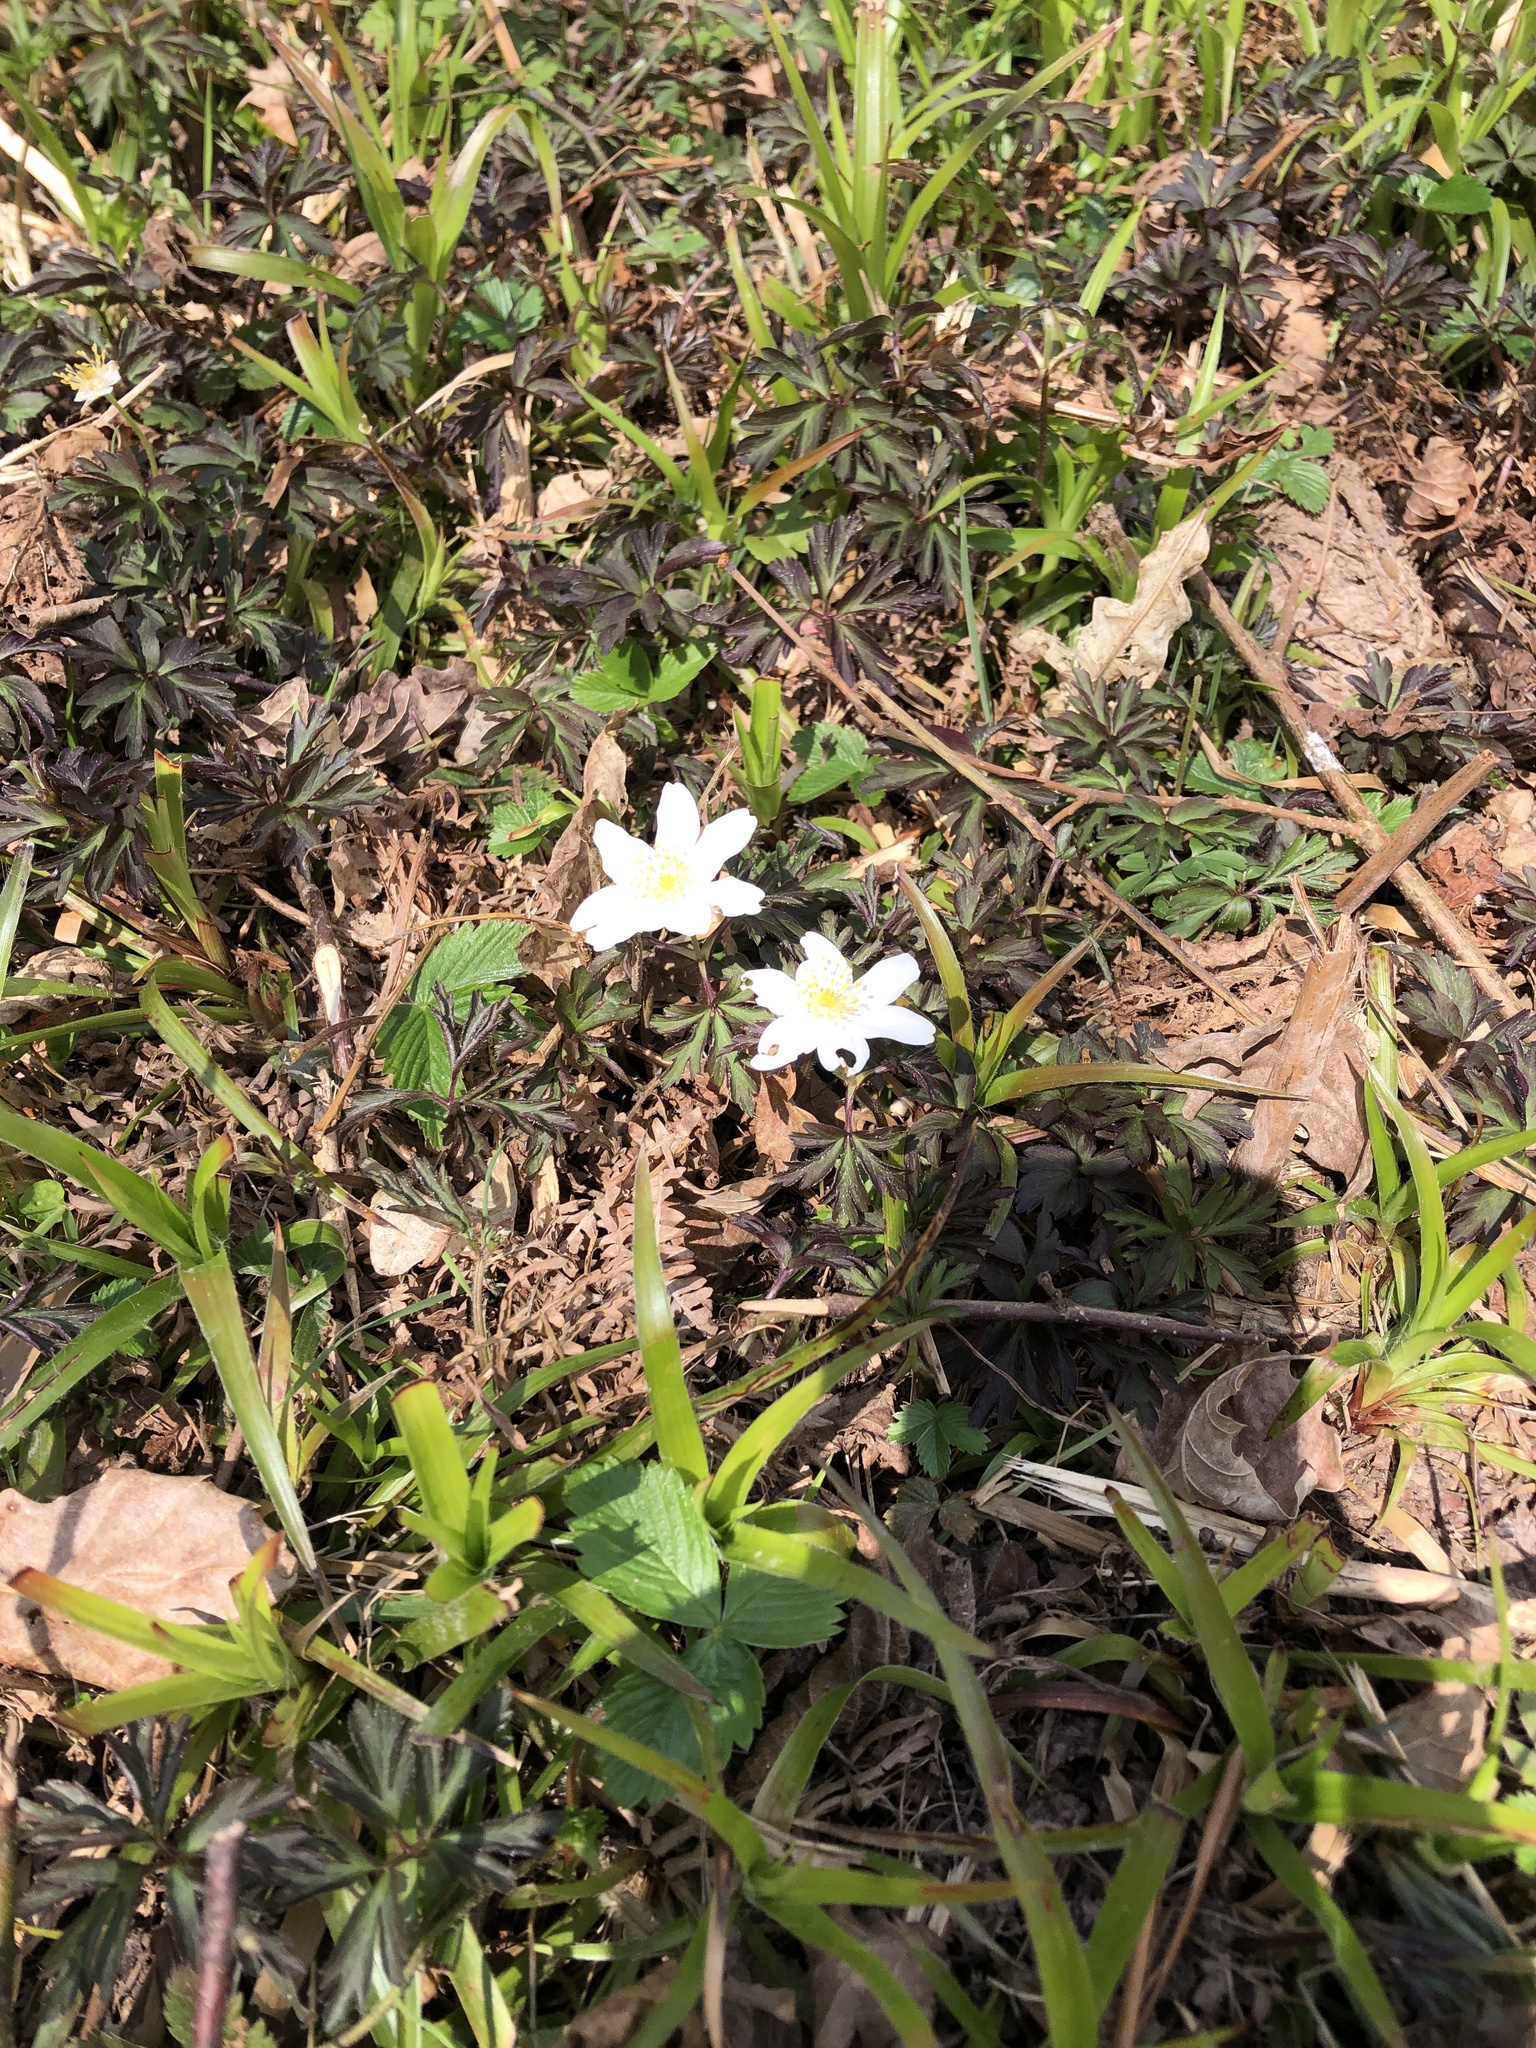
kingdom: Plantae
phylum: Tracheophyta
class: Magnoliopsida
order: Ranunculales
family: Ranunculaceae
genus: Anemone
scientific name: Anemone nemorosa
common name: Wood anemone
